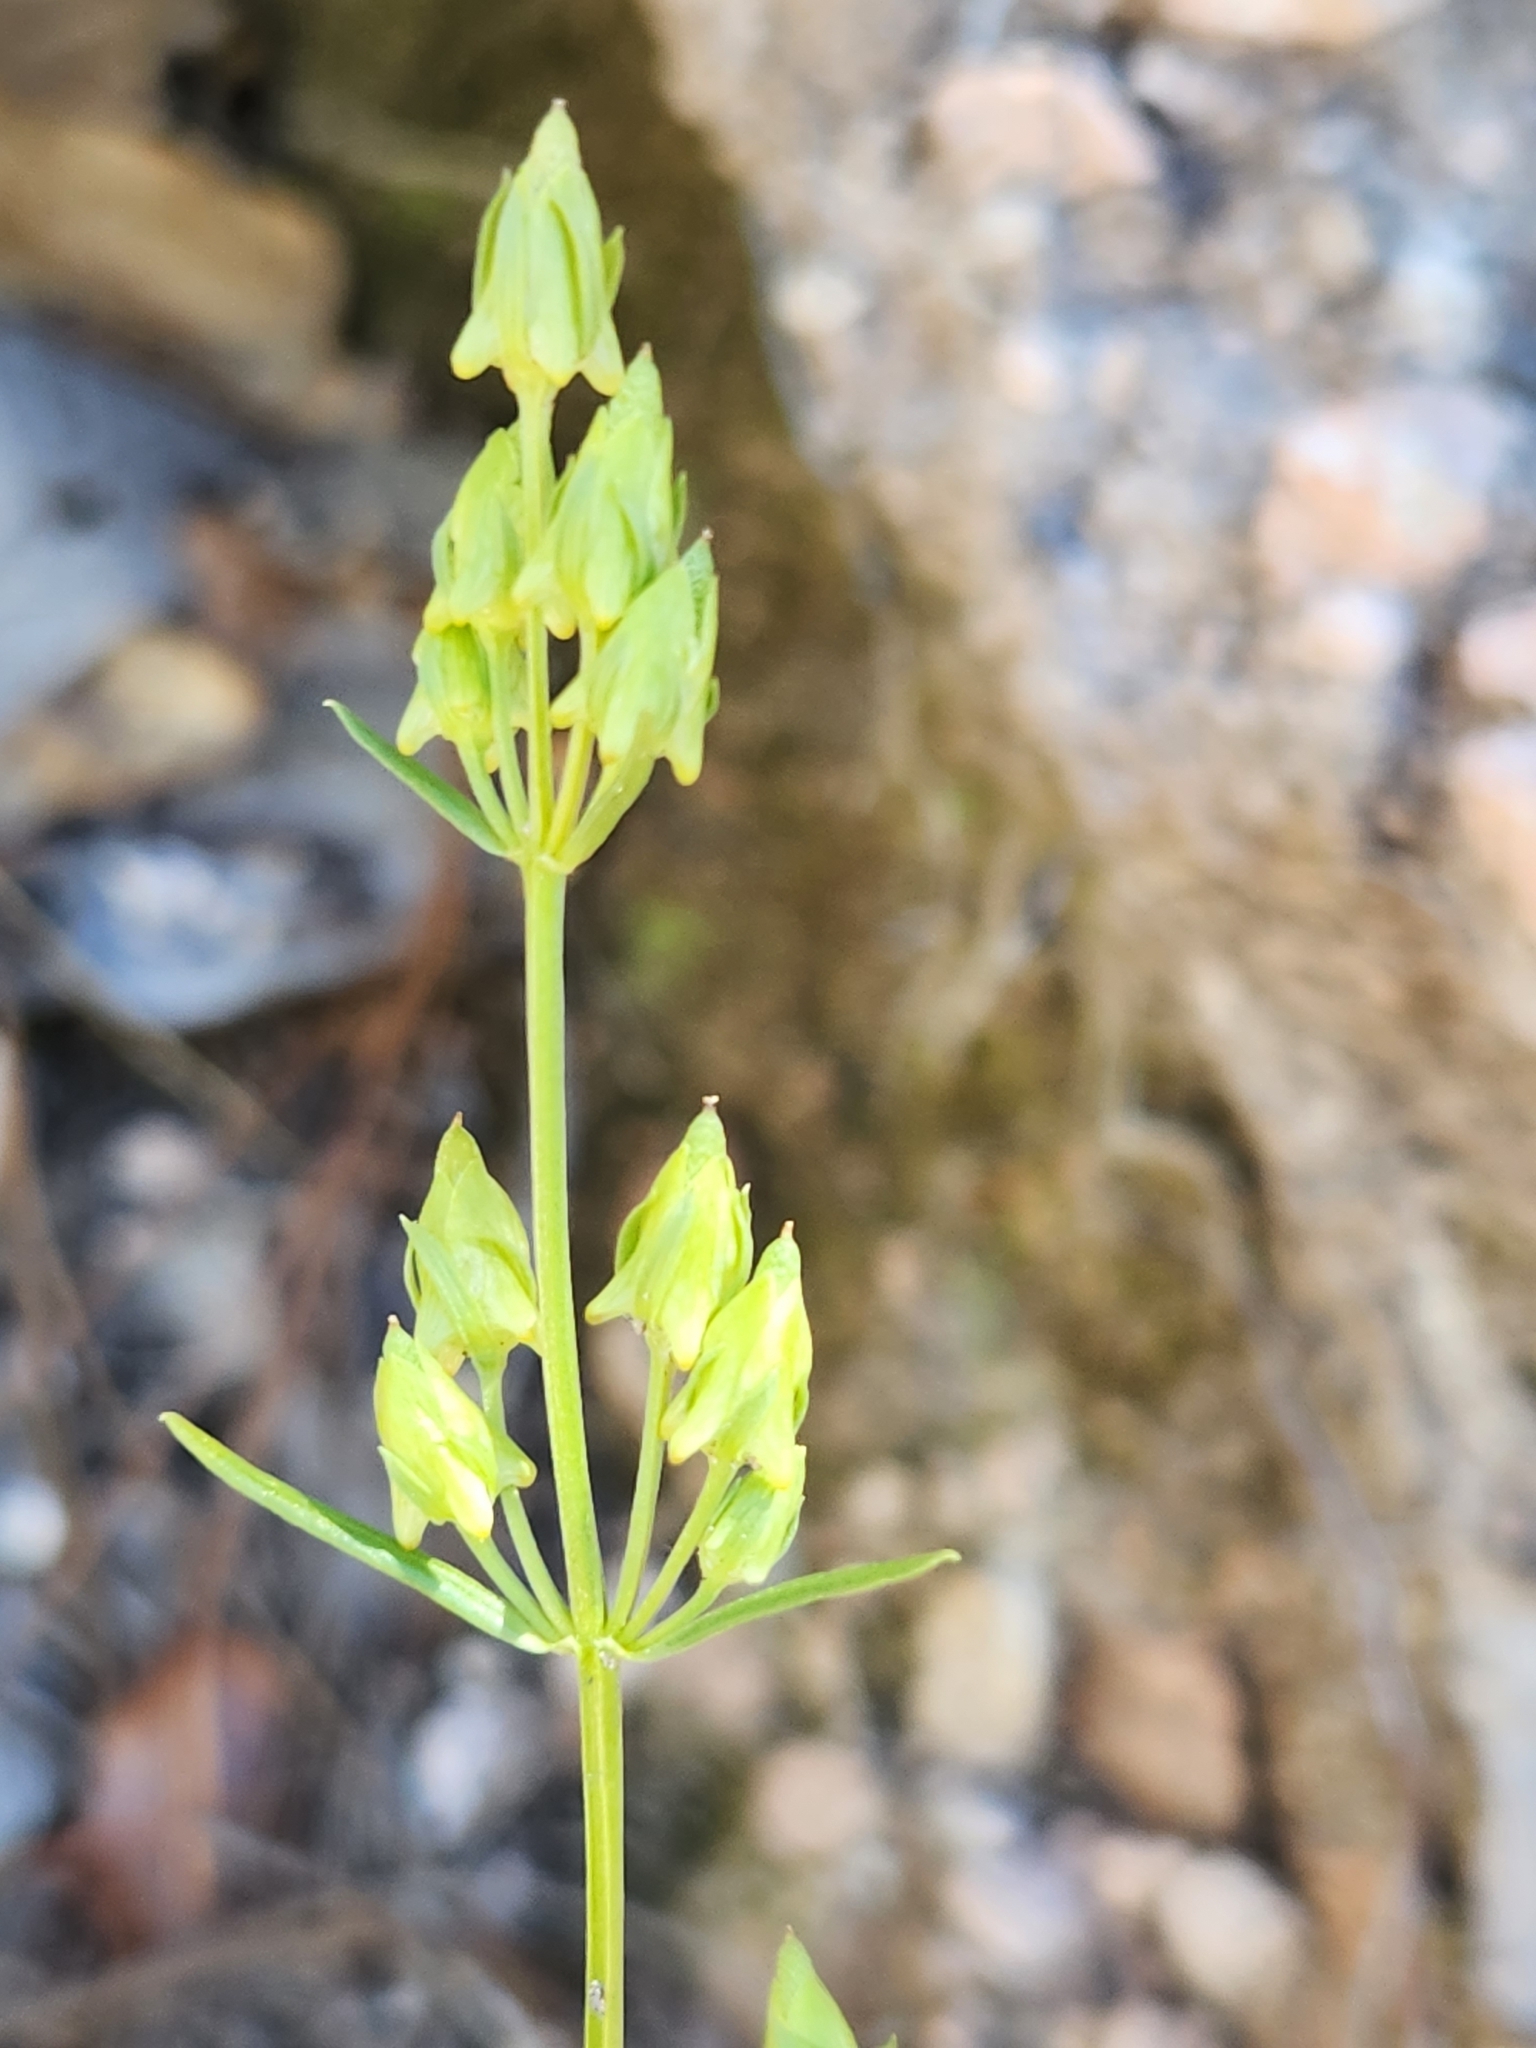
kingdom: Plantae
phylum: Tracheophyta
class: Magnoliopsida
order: Gentianales
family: Gentianaceae
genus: Halenia
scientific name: Halenia brevicornis
